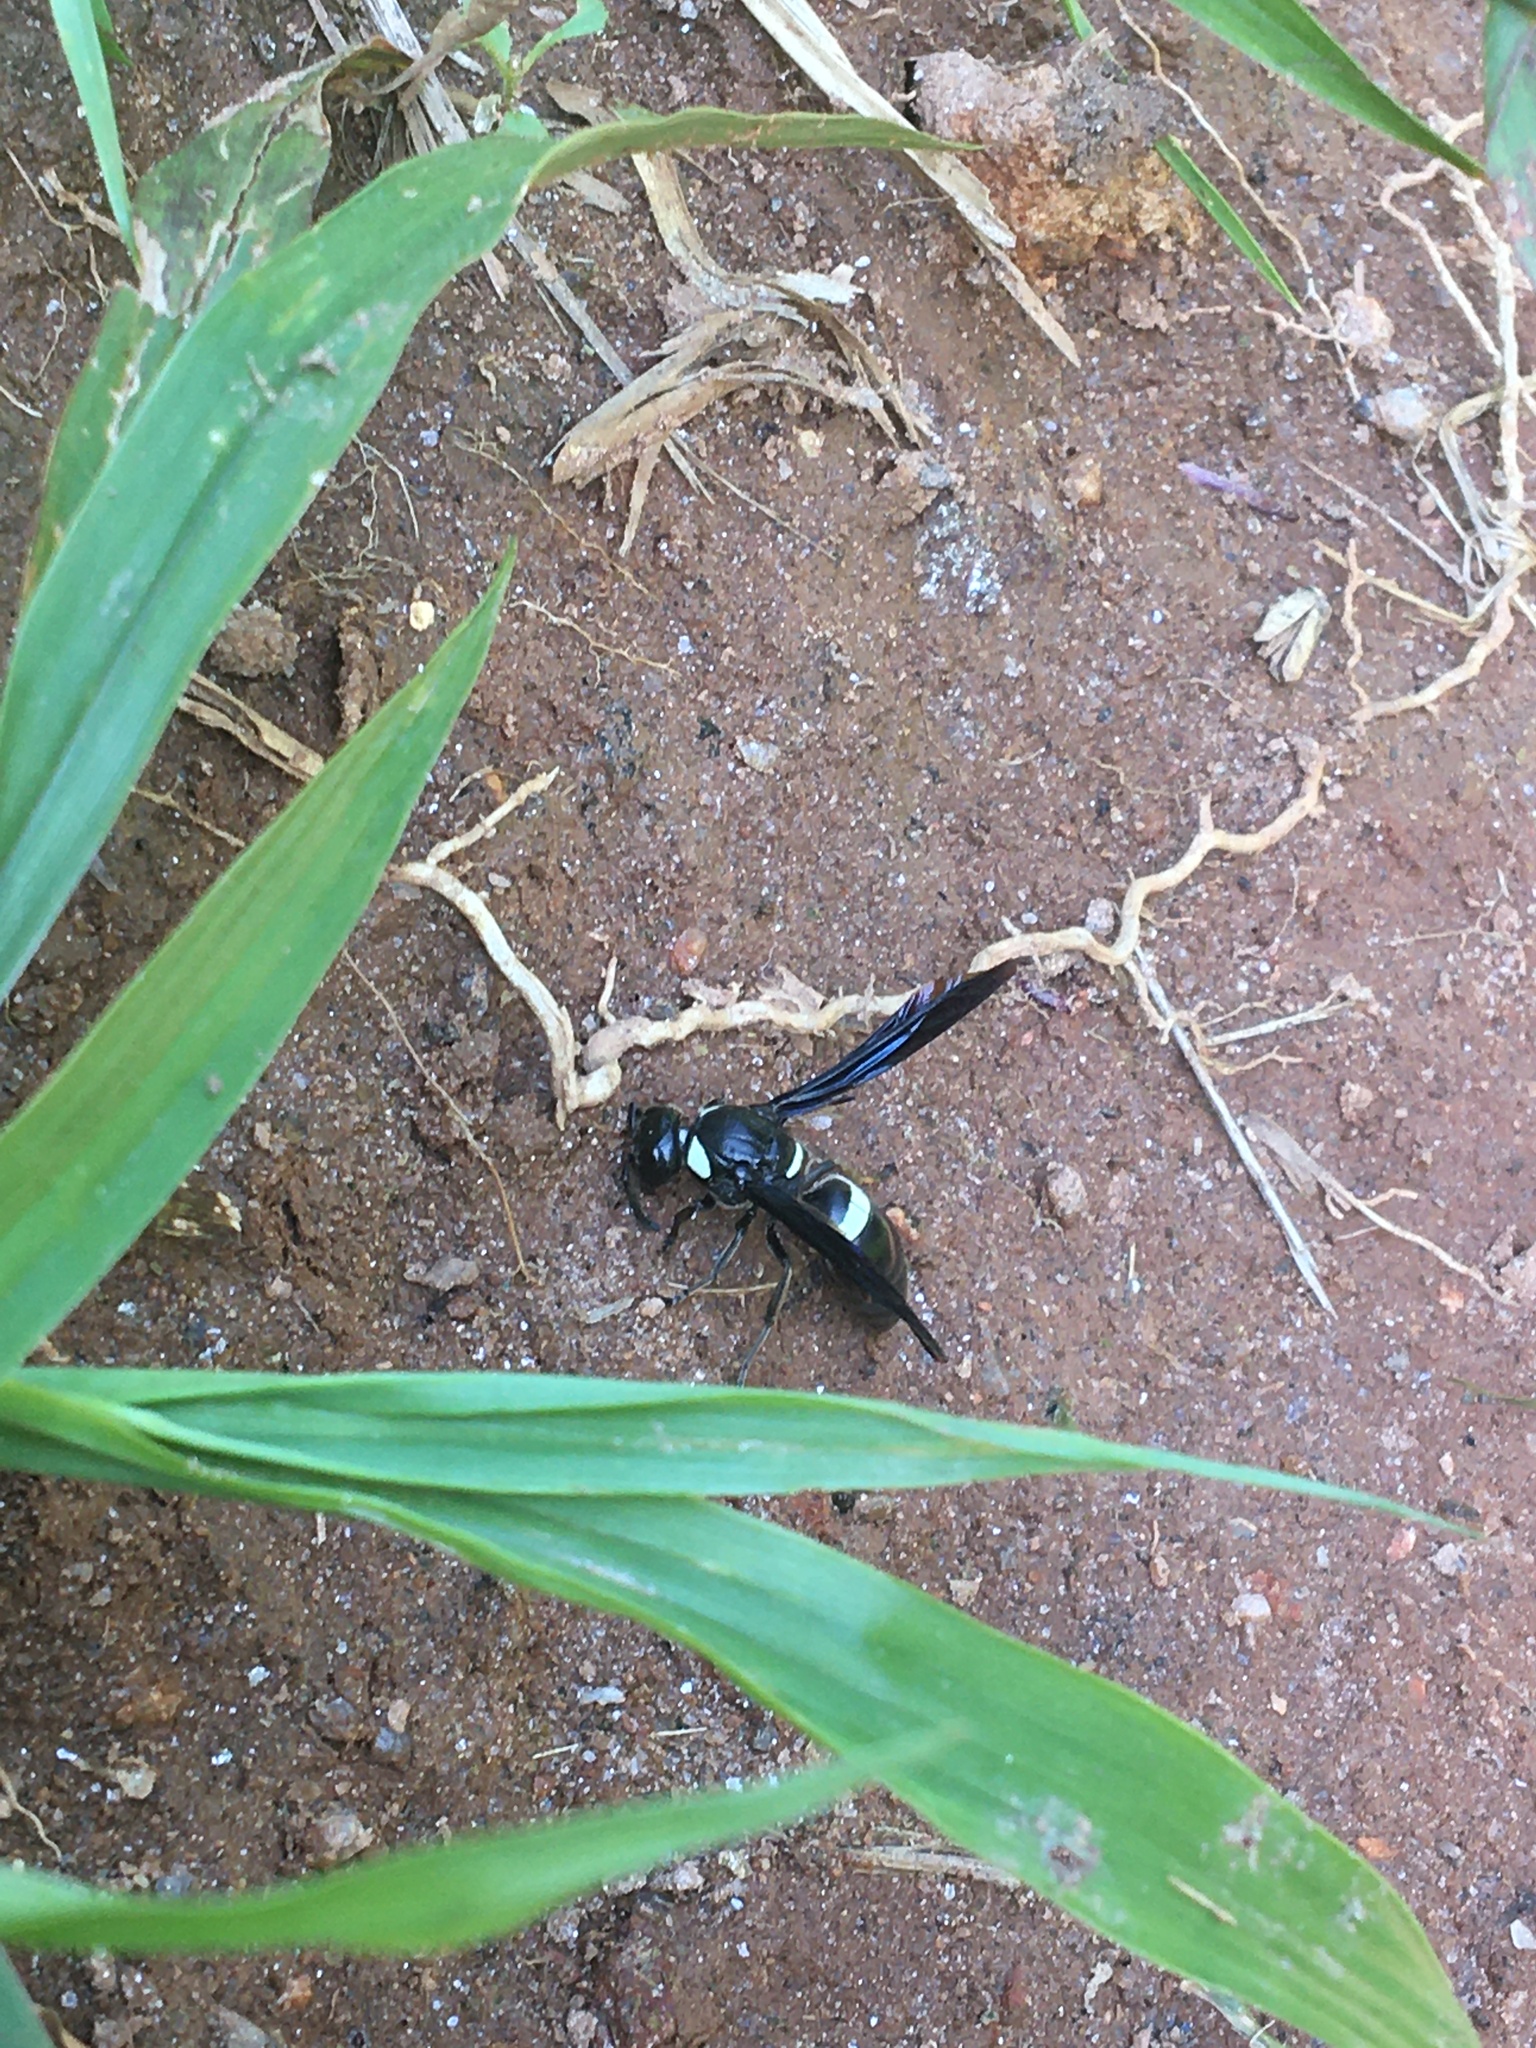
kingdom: Animalia
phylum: Arthropoda
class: Insecta
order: Hymenoptera
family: Eumenidae
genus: Monobia
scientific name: Monobia quadridens
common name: Four-toothed mason wasp
